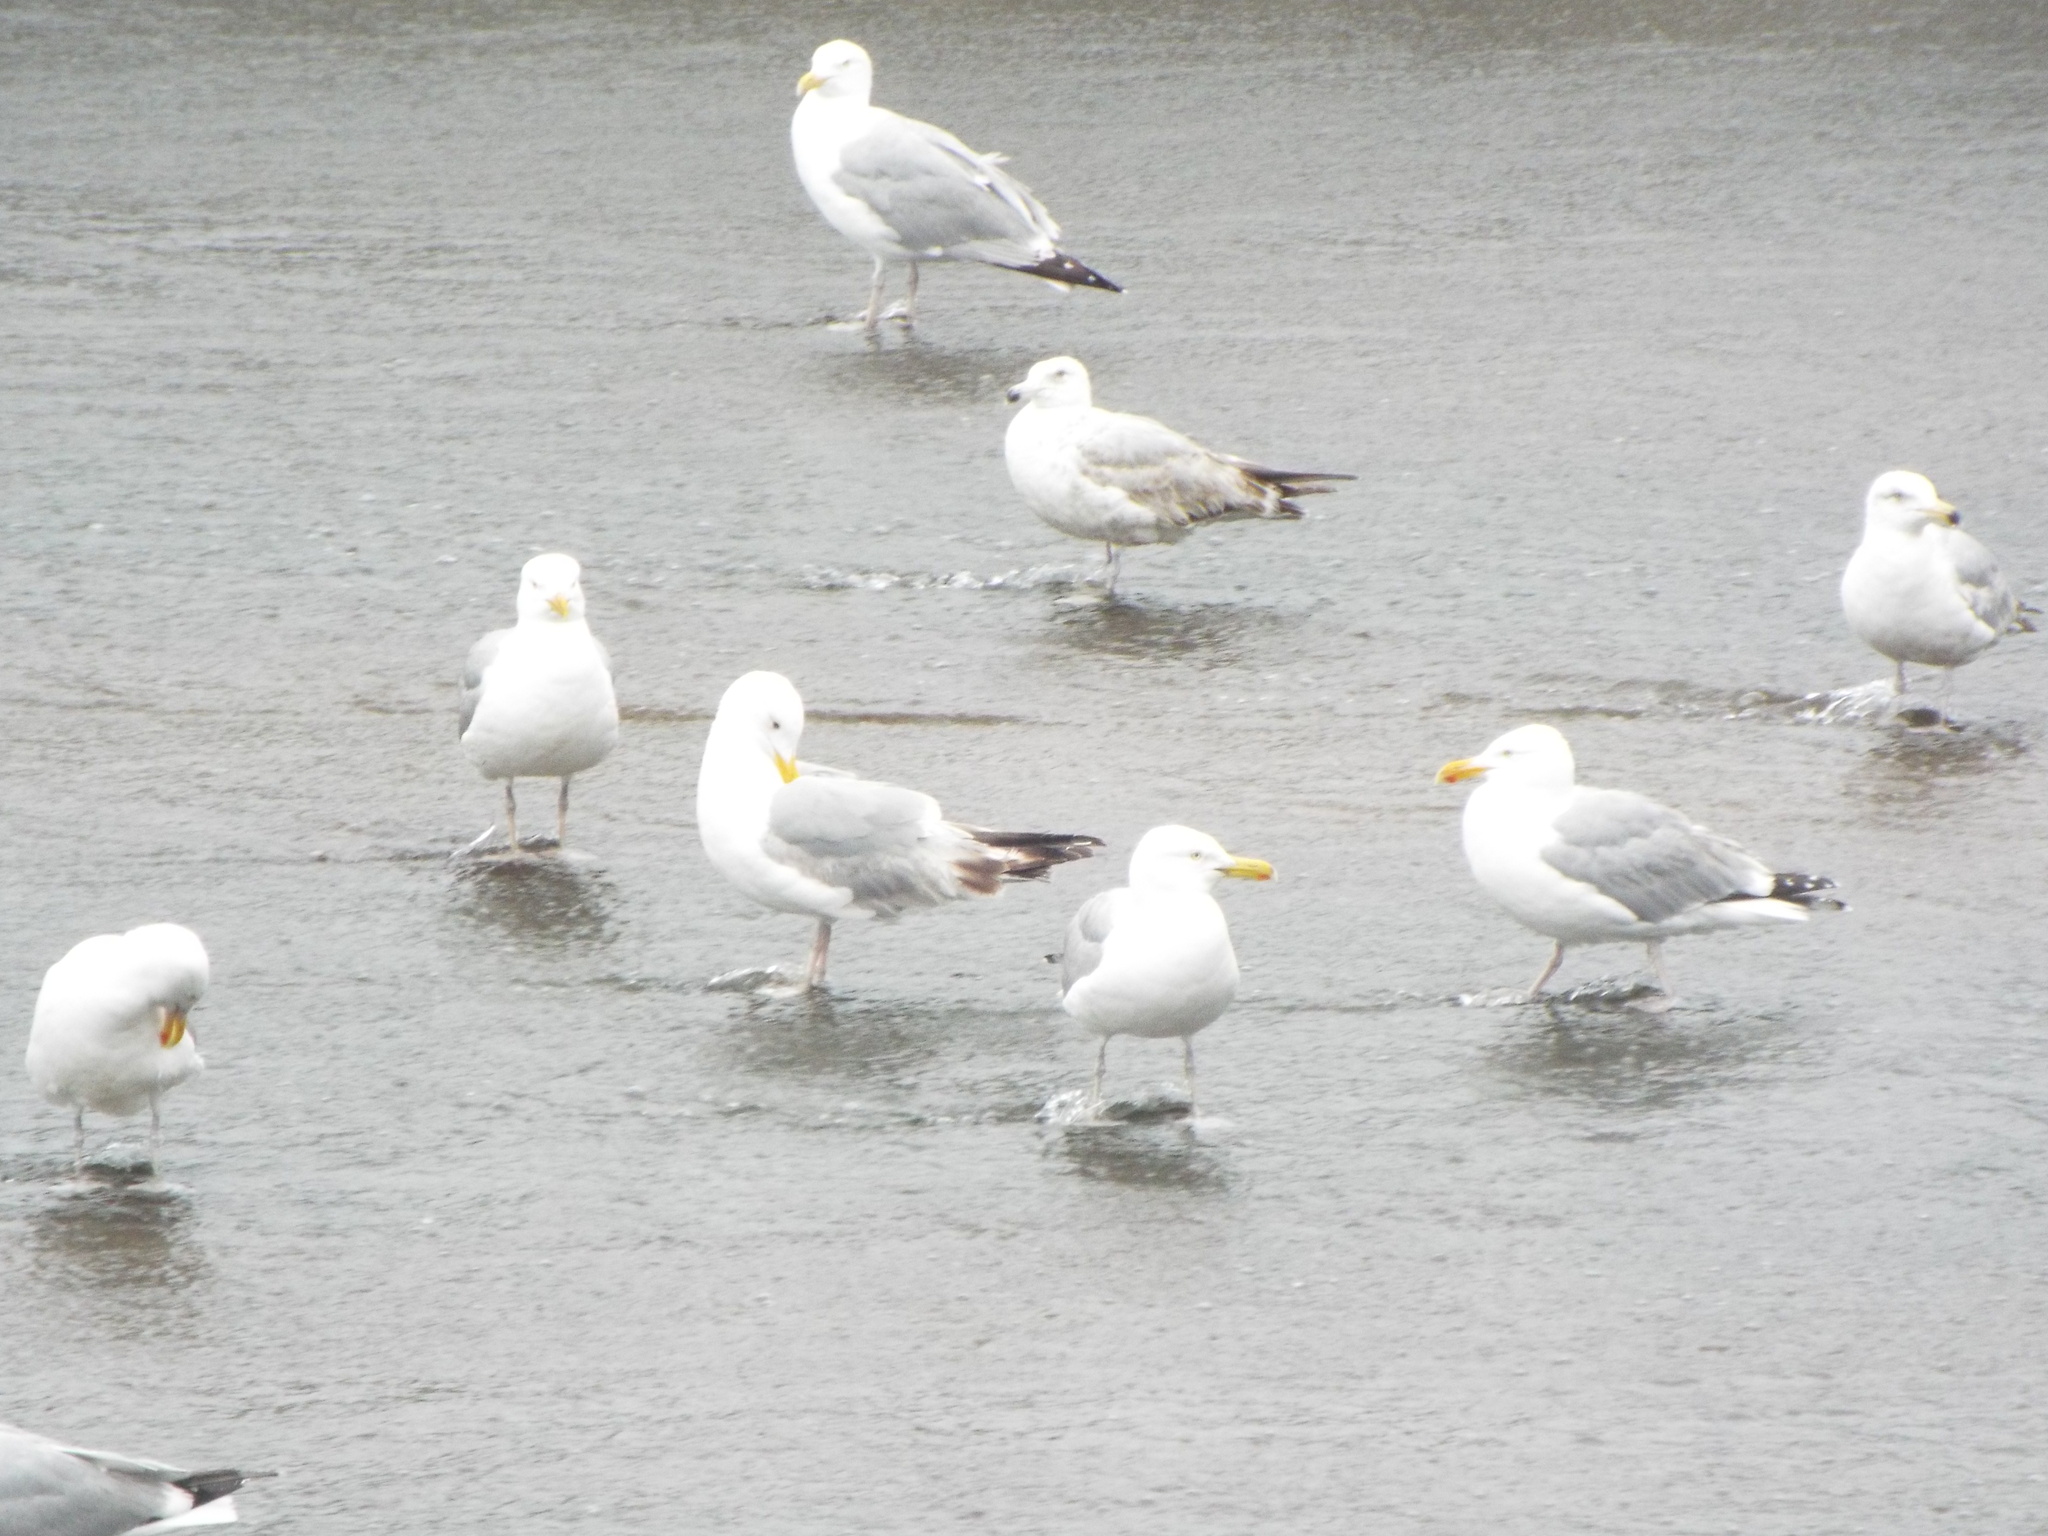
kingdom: Animalia
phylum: Chordata
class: Aves
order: Charadriiformes
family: Laridae
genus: Larus
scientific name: Larus argentatus
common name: Herring gull
